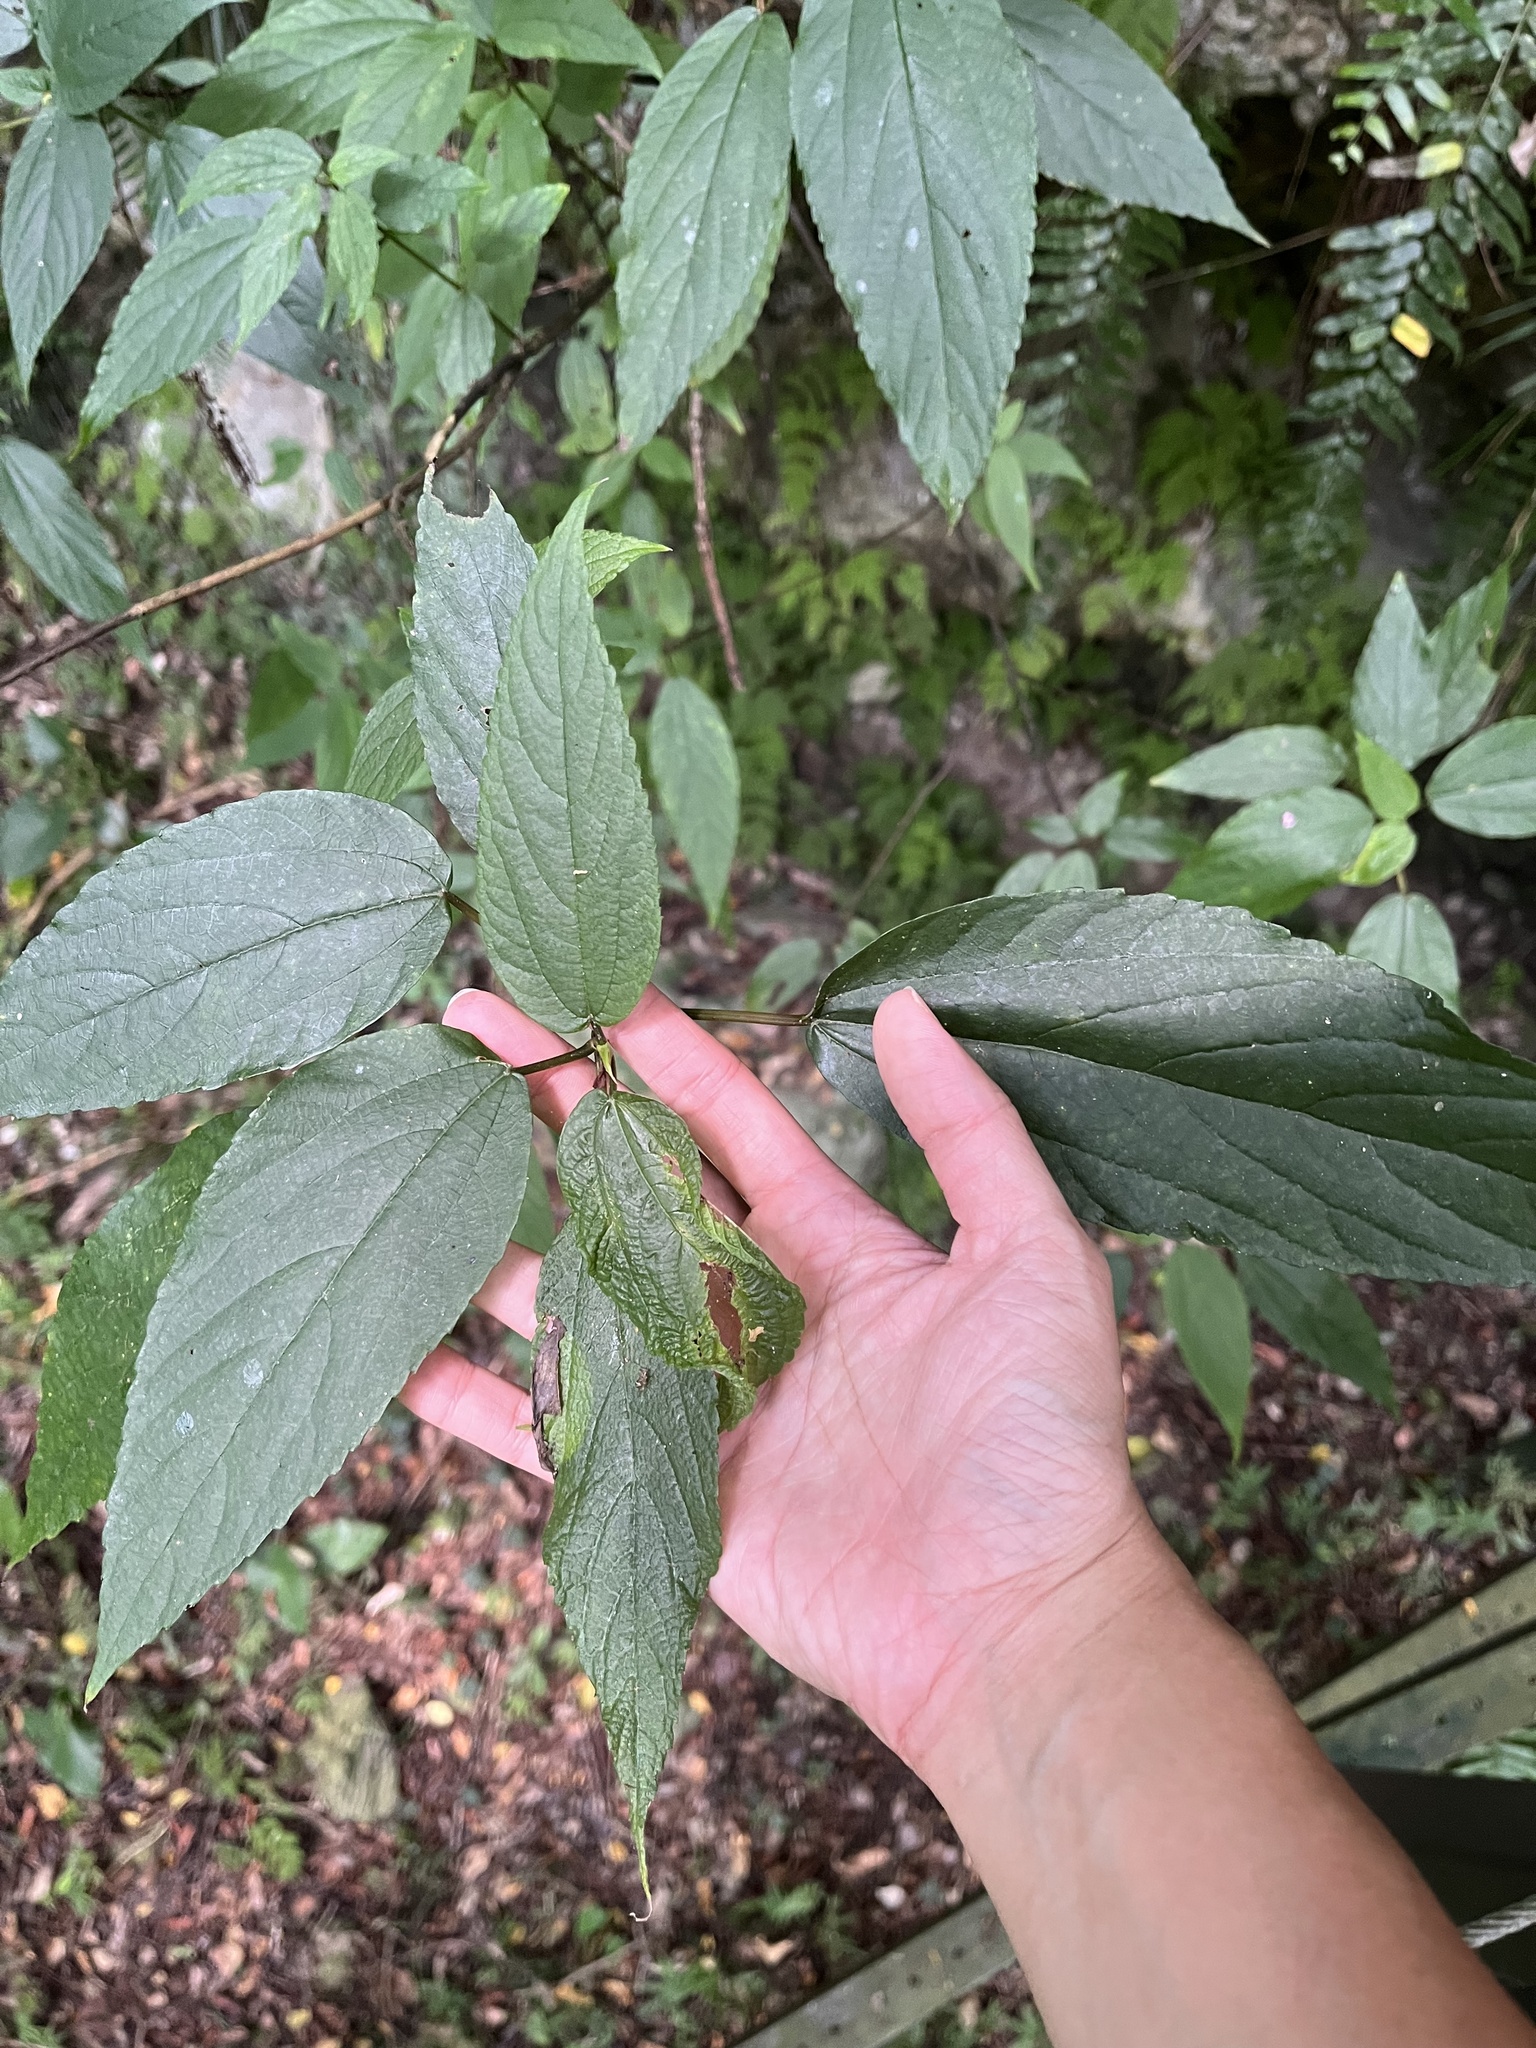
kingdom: Plantae
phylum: Tracheophyta
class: Magnoliopsida
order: Rosales
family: Urticaceae
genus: Boehmeria
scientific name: Boehmeria zollingeriana
